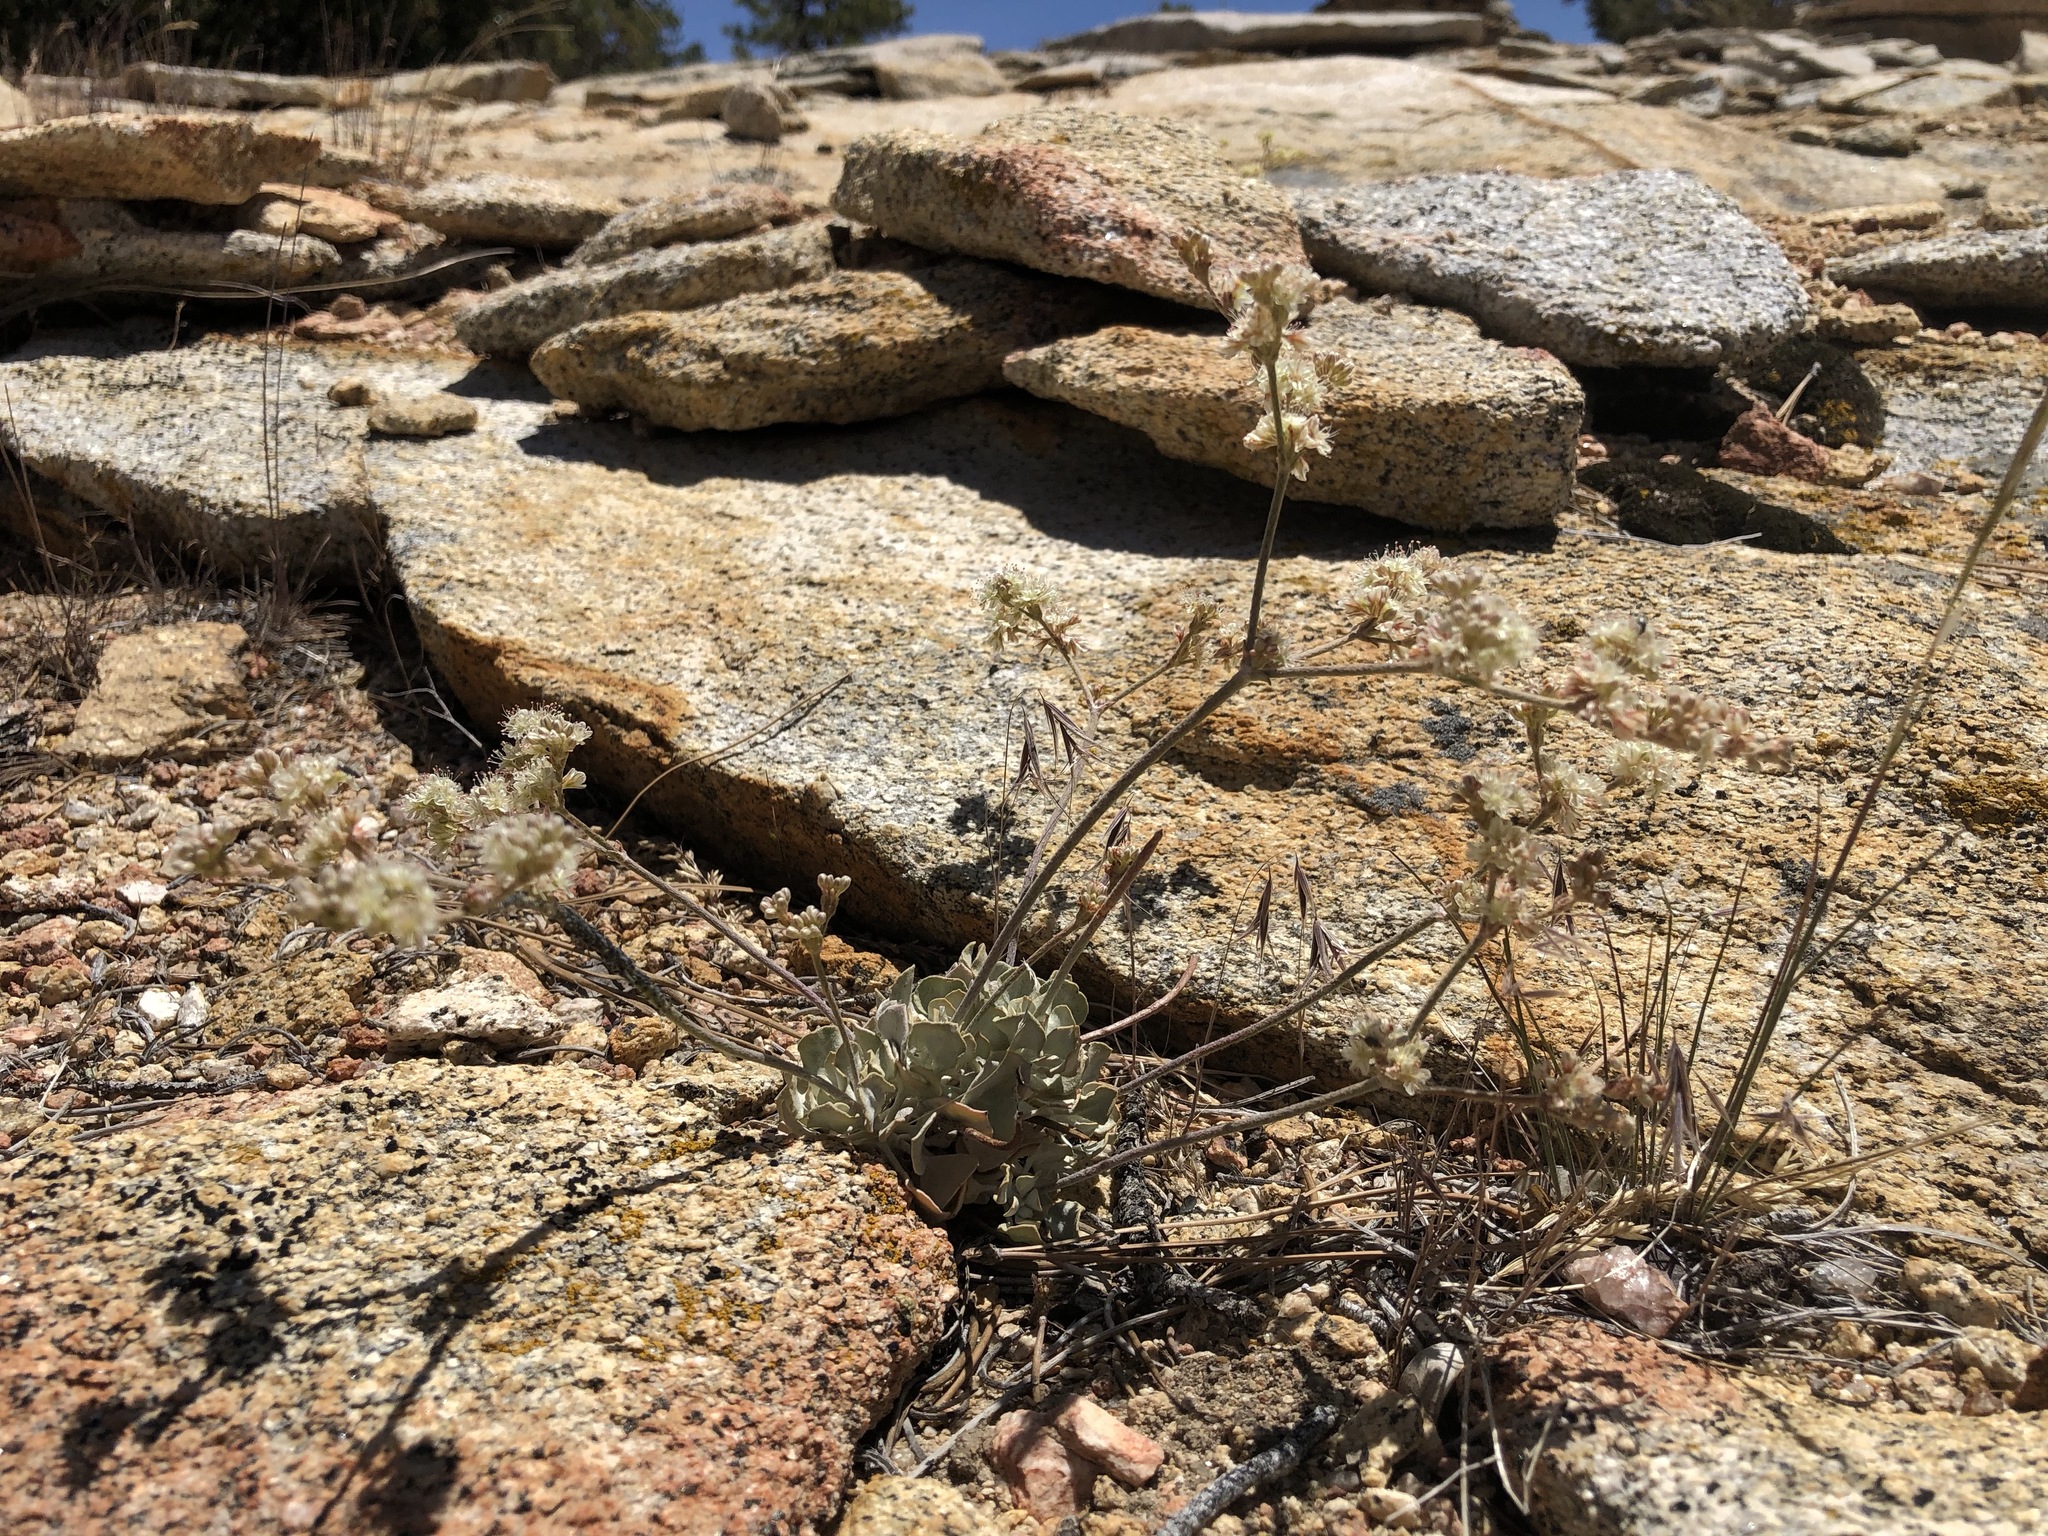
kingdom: Plantae
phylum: Tracheophyta
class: Magnoliopsida
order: Caryophyllales
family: Polygonaceae
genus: Eriogonum
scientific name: Eriogonum saxatile
